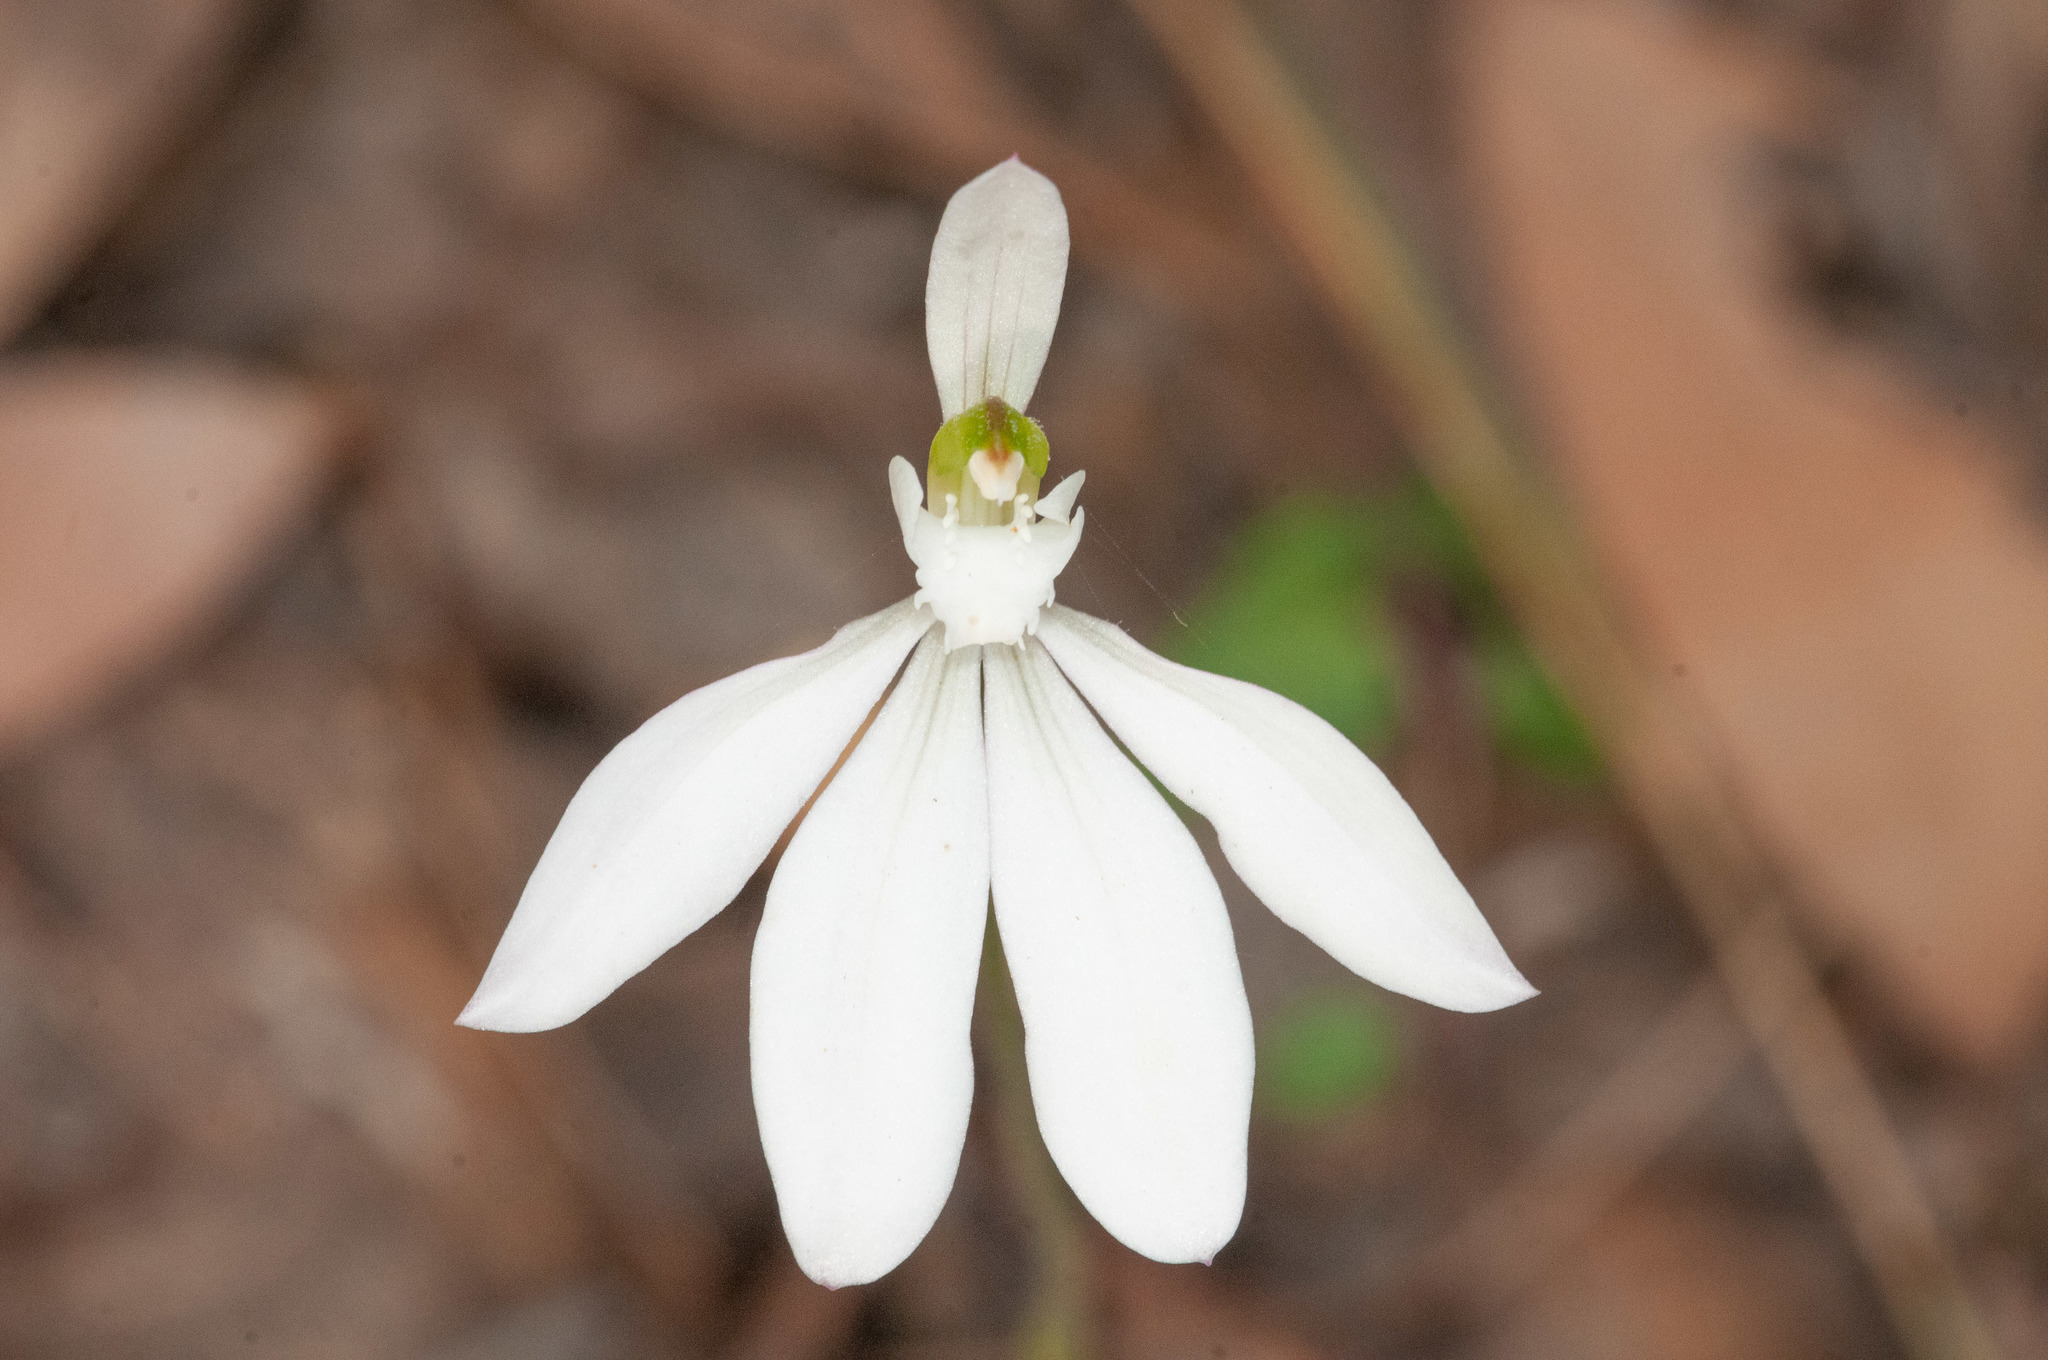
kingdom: Plantae
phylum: Tracheophyta
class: Liliopsida
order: Asparagales
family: Orchidaceae
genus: Caladenia
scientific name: Caladenia catenata
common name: White caladenia
